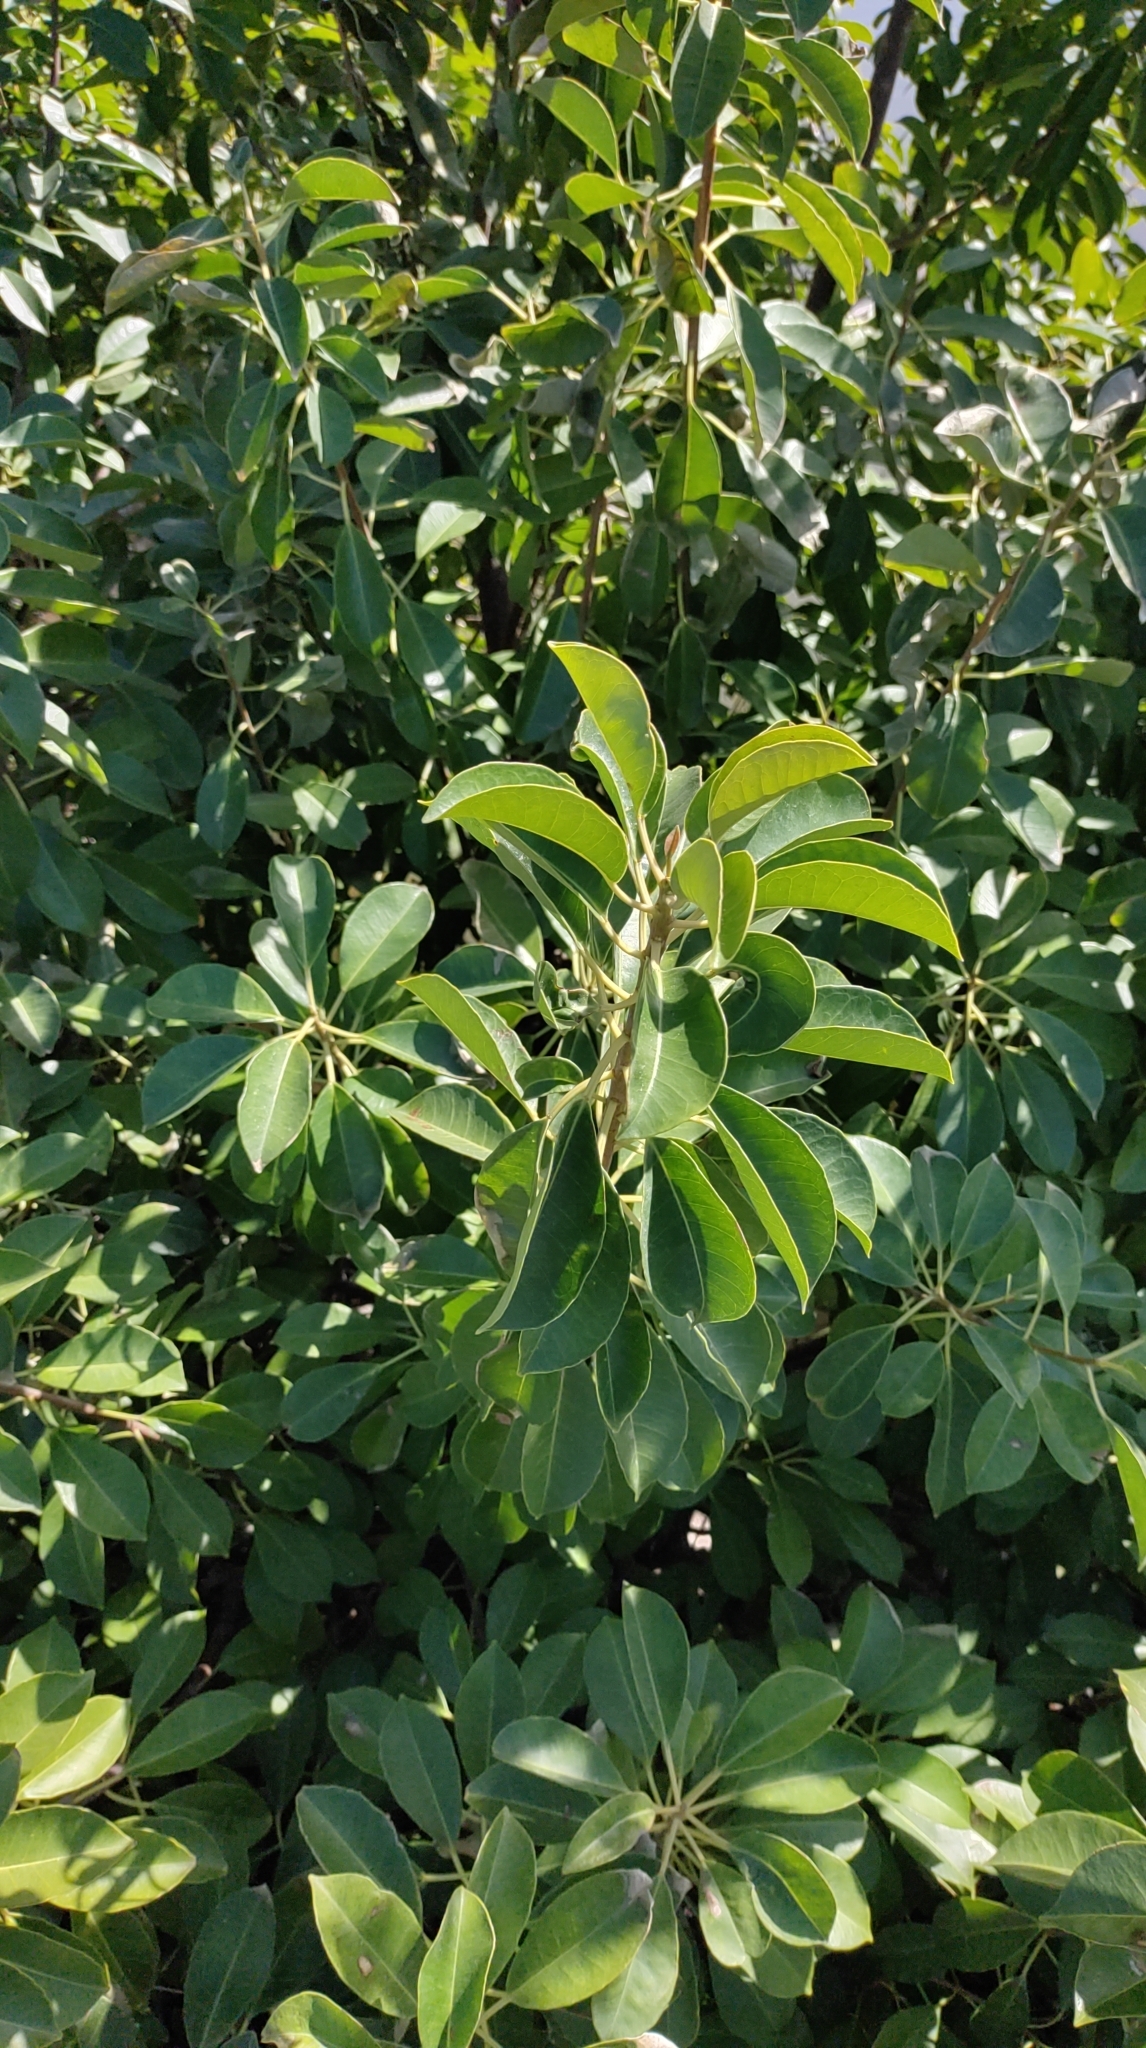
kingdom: Plantae
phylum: Tracheophyta
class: Magnoliopsida
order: Malpighiales
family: Euphorbiaceae
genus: Excoecaria
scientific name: Excoecaria agallocha
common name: River poisontree
